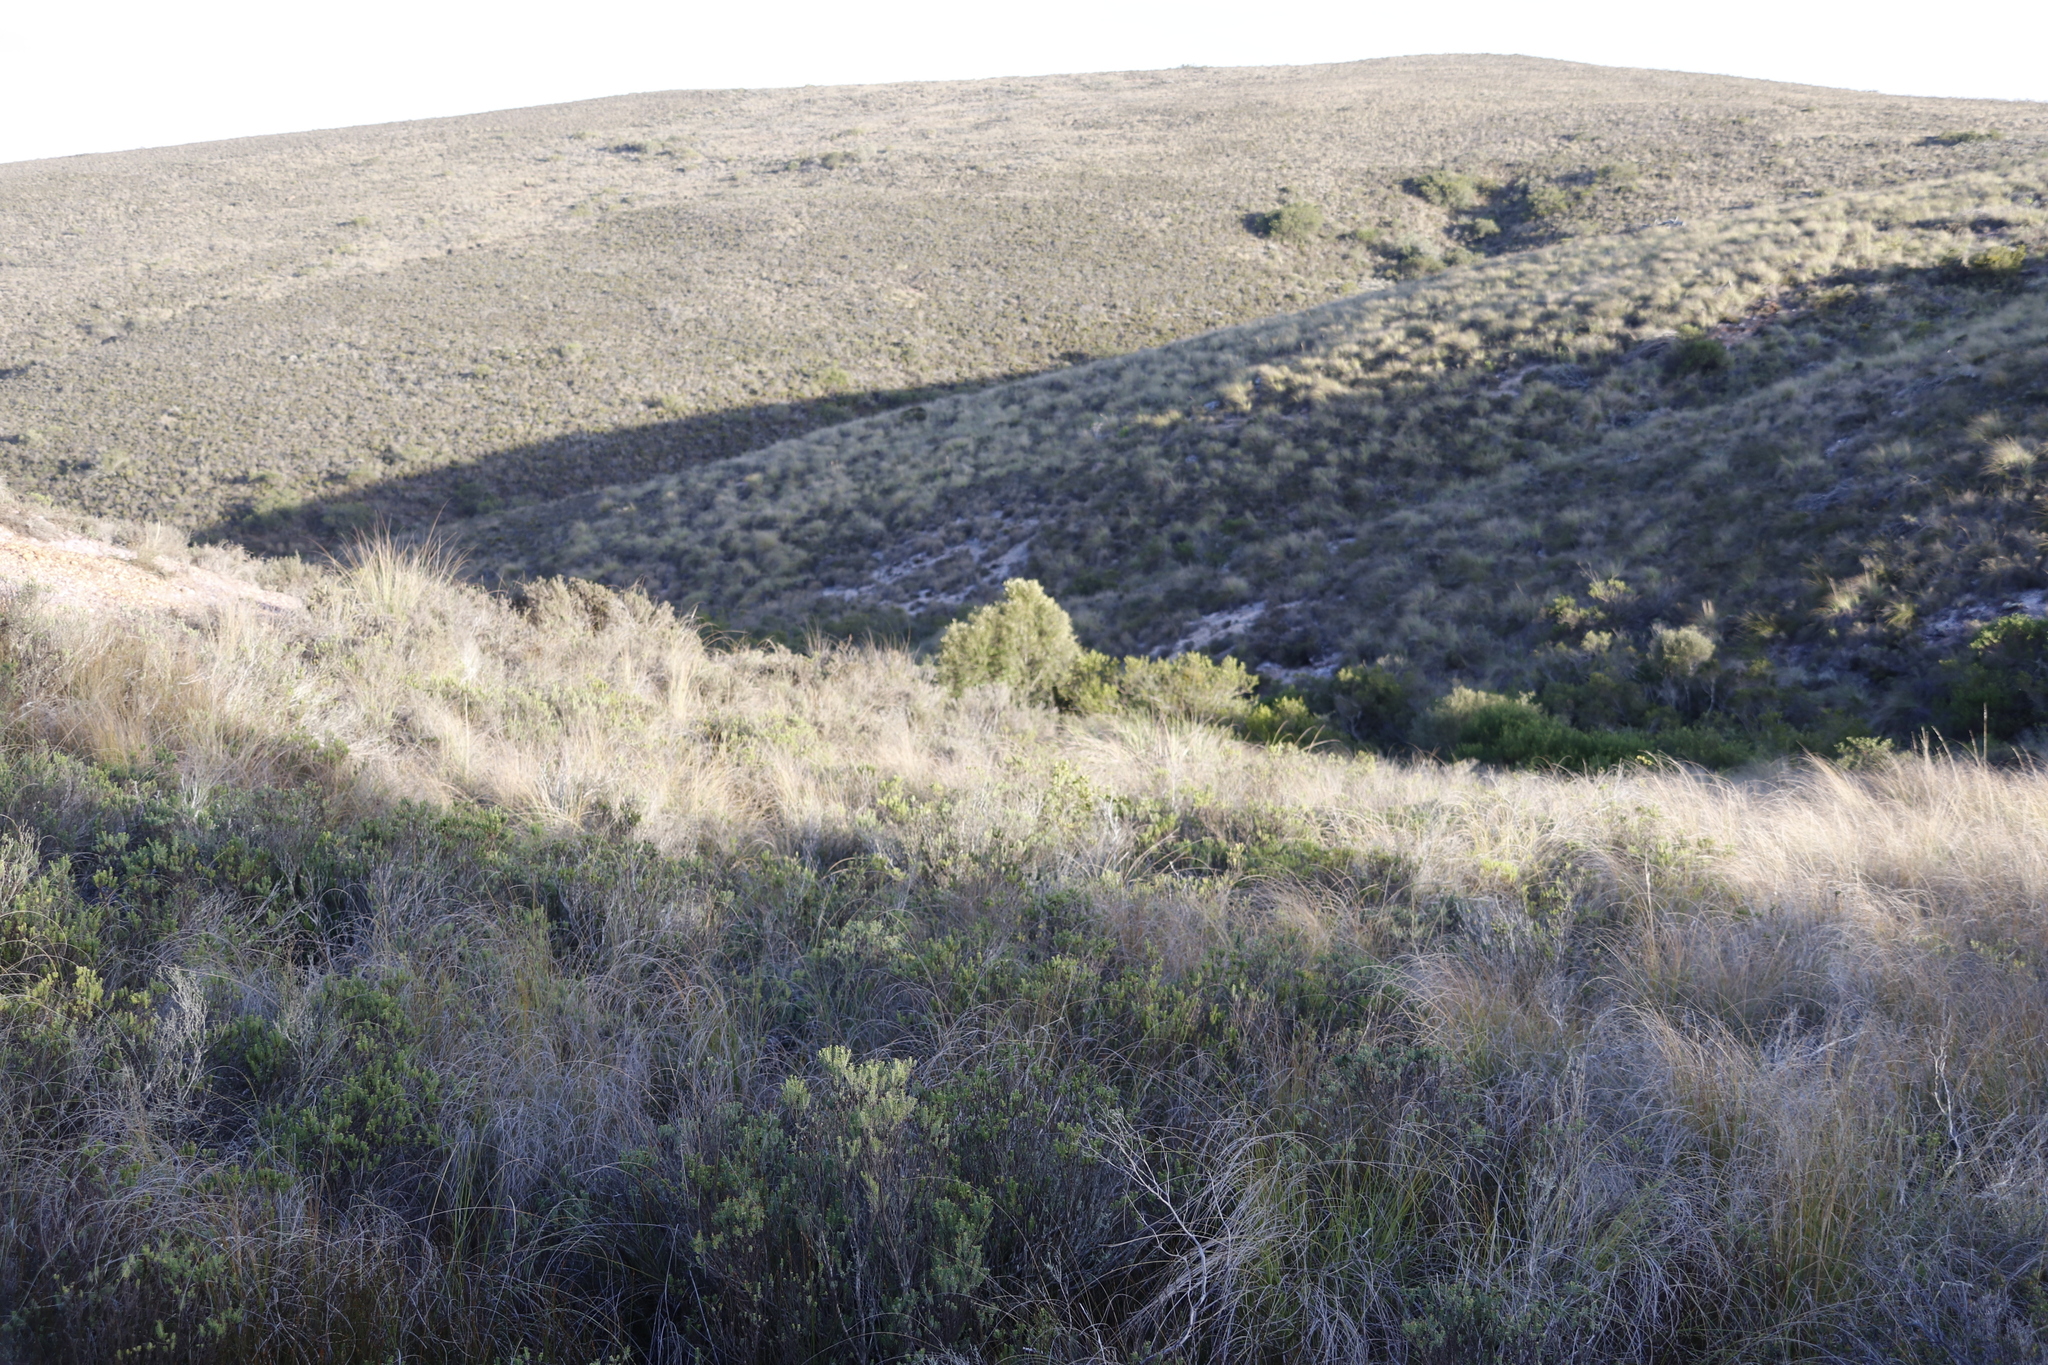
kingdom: Plantae
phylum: Tracheophyta
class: Magnoliopsida
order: Lamiales
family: Oleaceae
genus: Olea
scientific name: Olea europaea
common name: Olive
